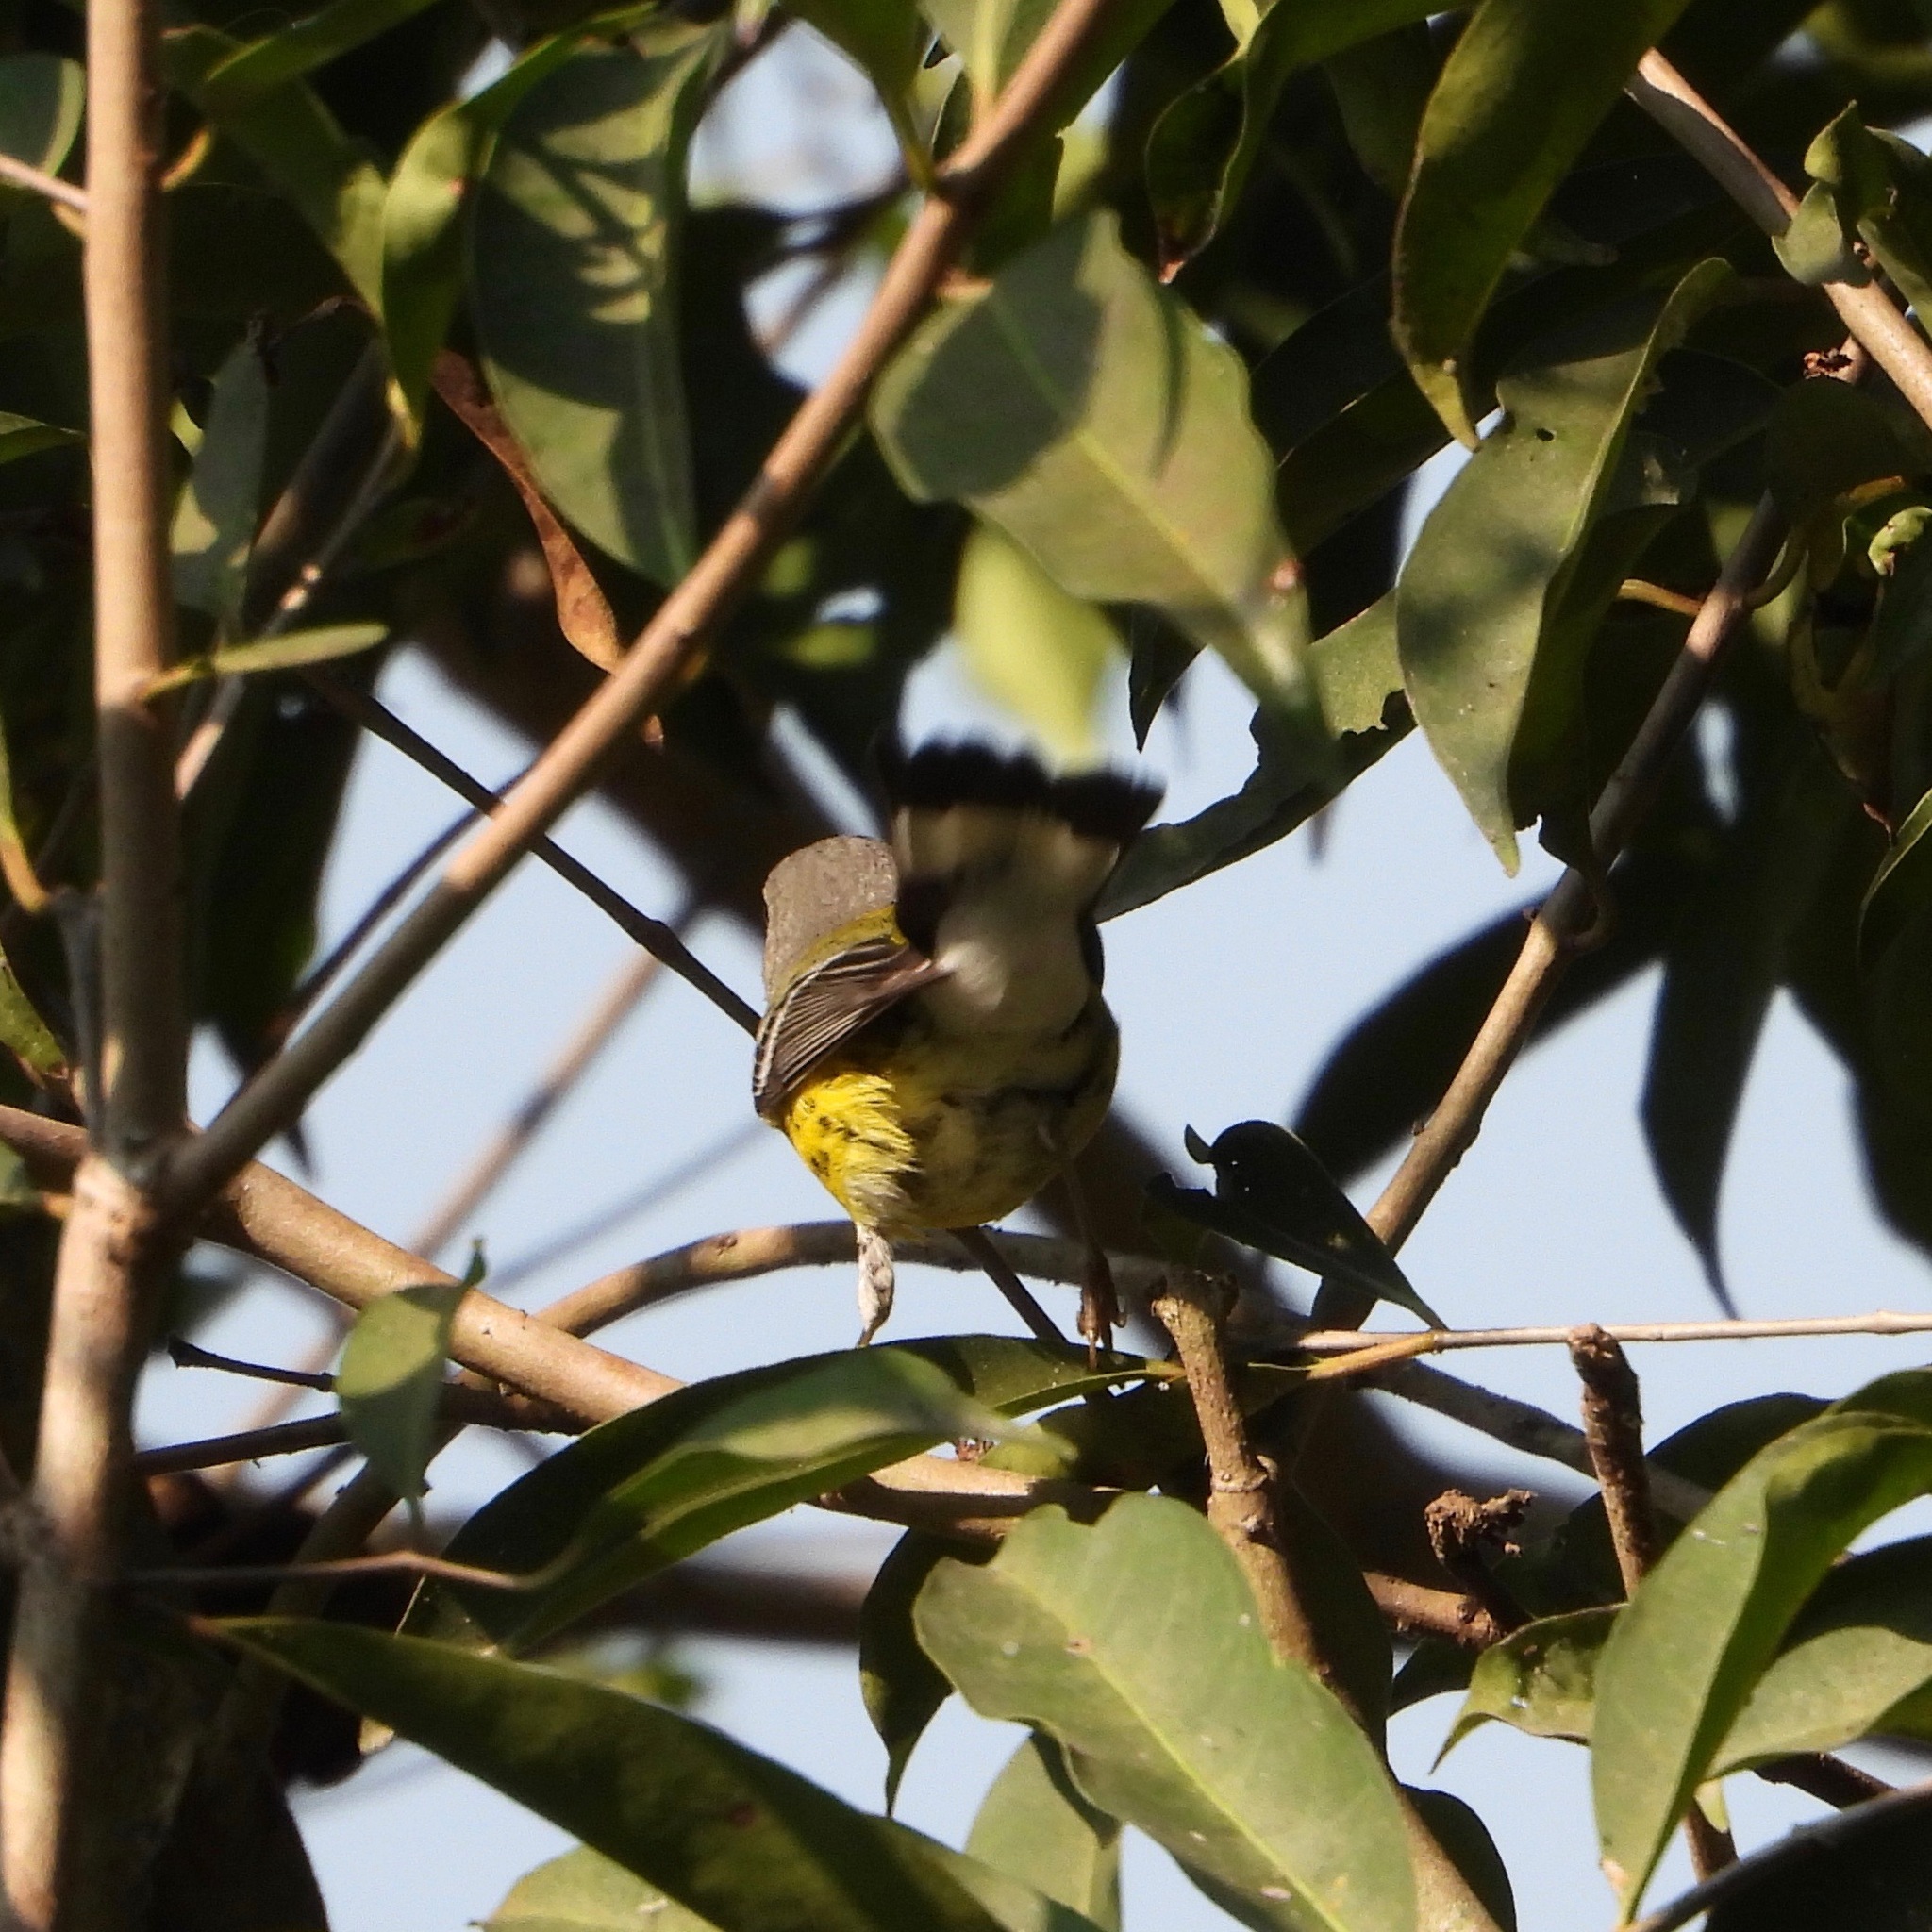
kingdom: Animalia
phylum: Chordata
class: Aves
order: Passeriformes
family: Parulidae
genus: Setophaga
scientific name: Setophaga magnolia
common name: Magnolia warbler
